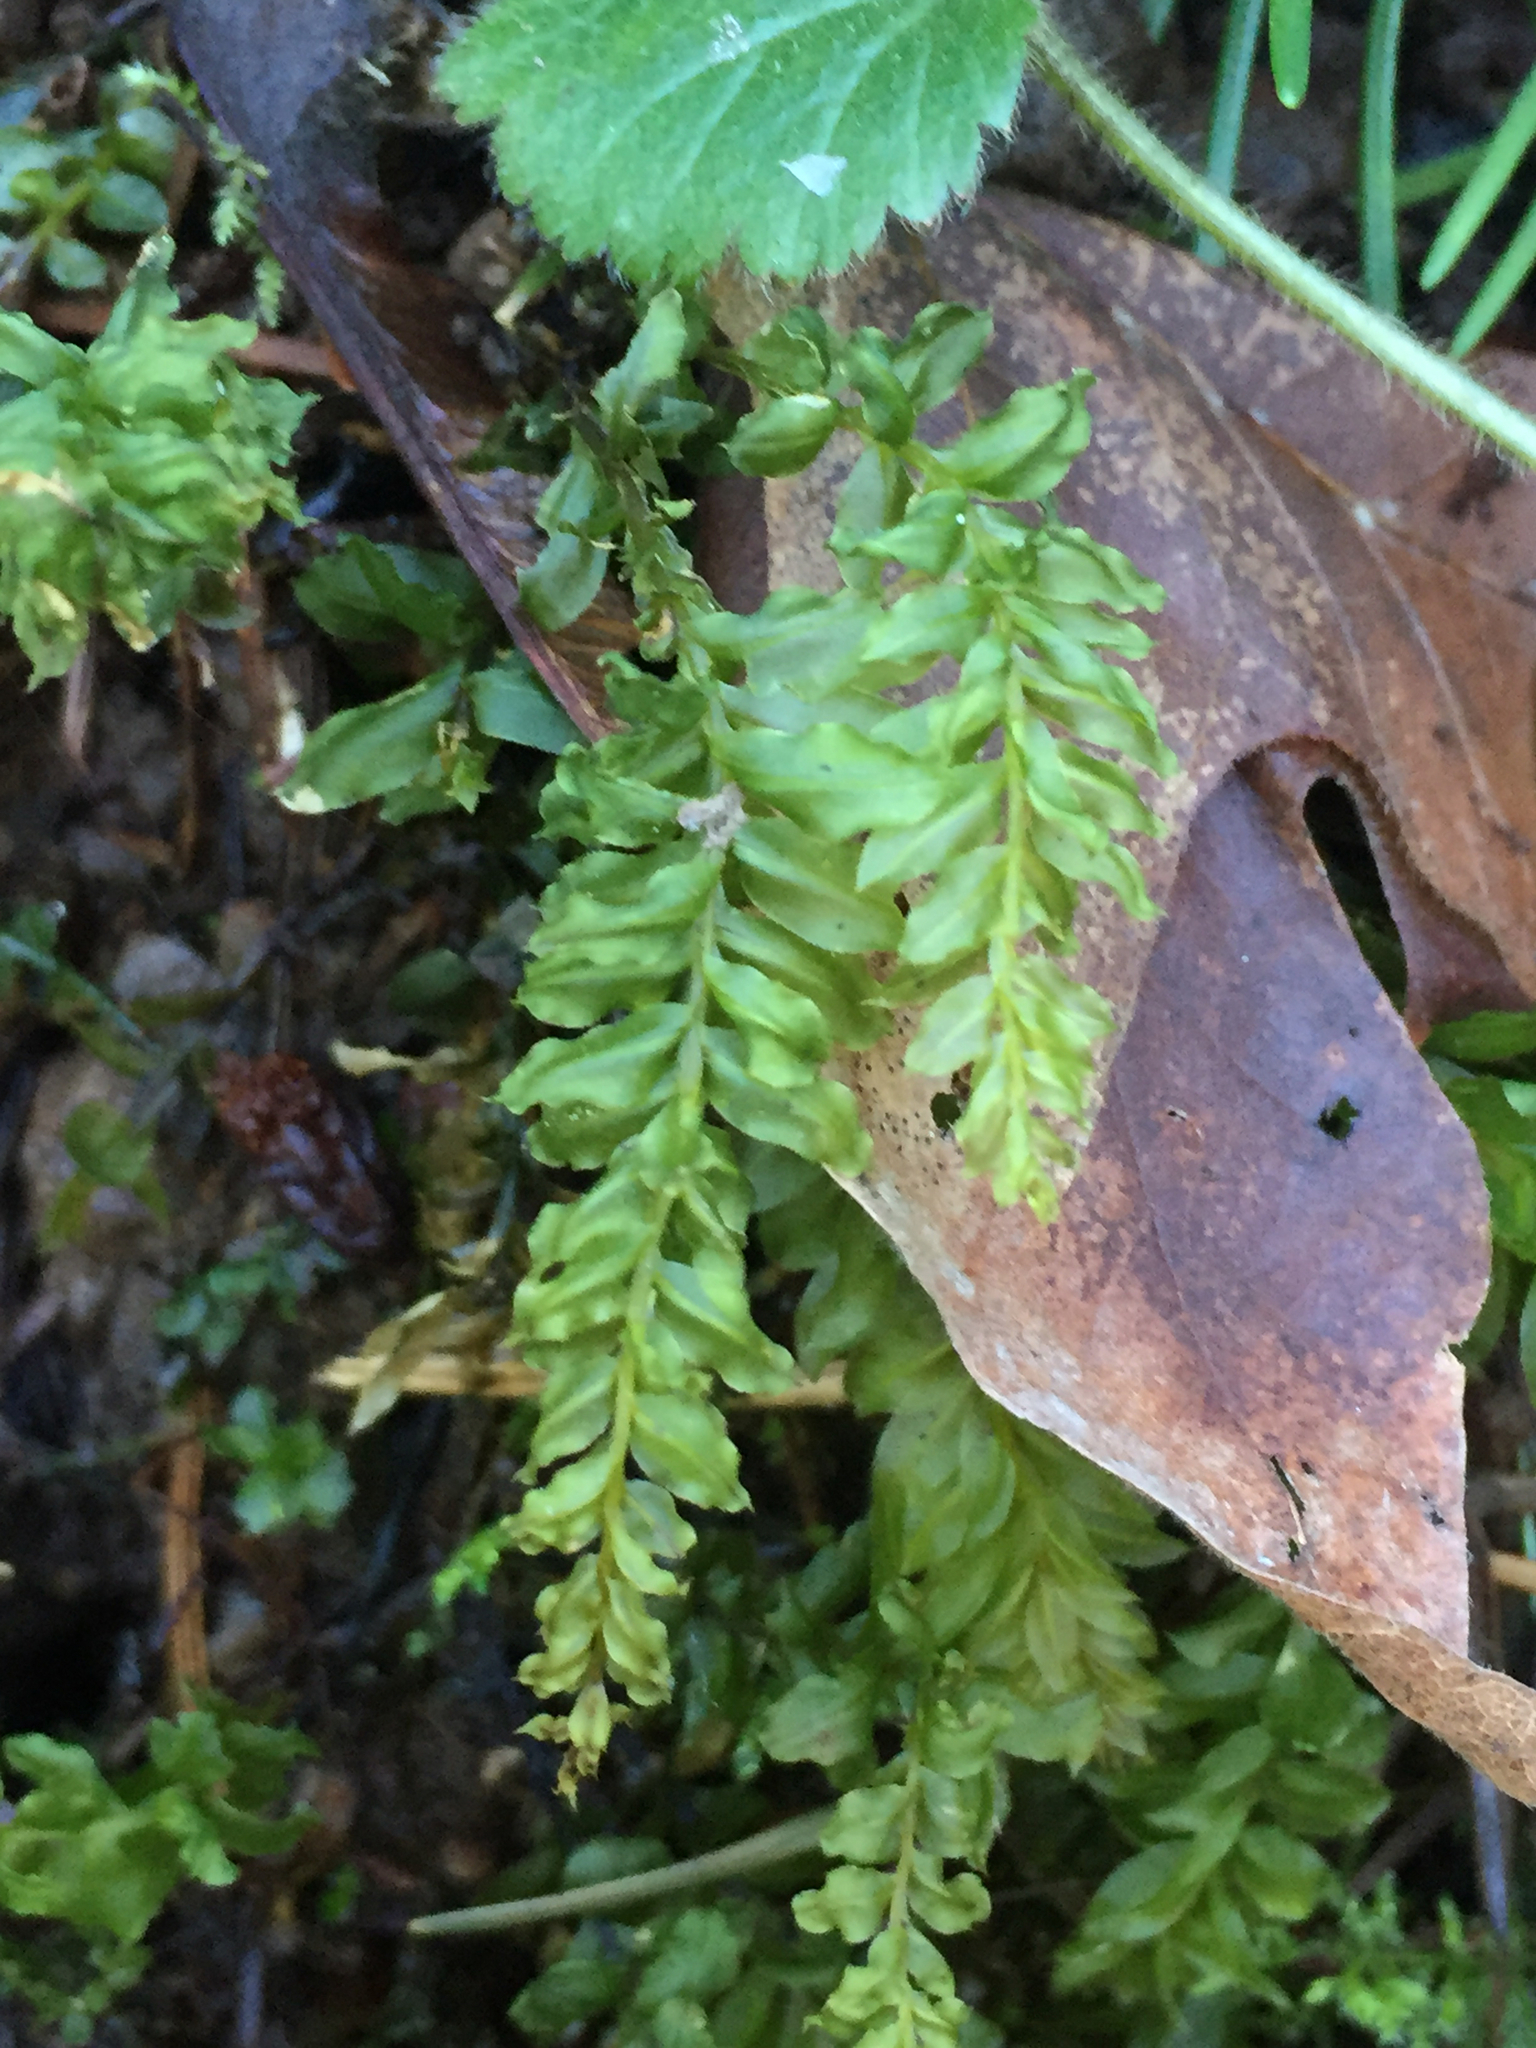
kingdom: Plantae
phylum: Bryophyta
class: Bryopsida
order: Bryales
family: Mniaceae
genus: Plagiomnium
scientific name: Plagiomnium insigne
